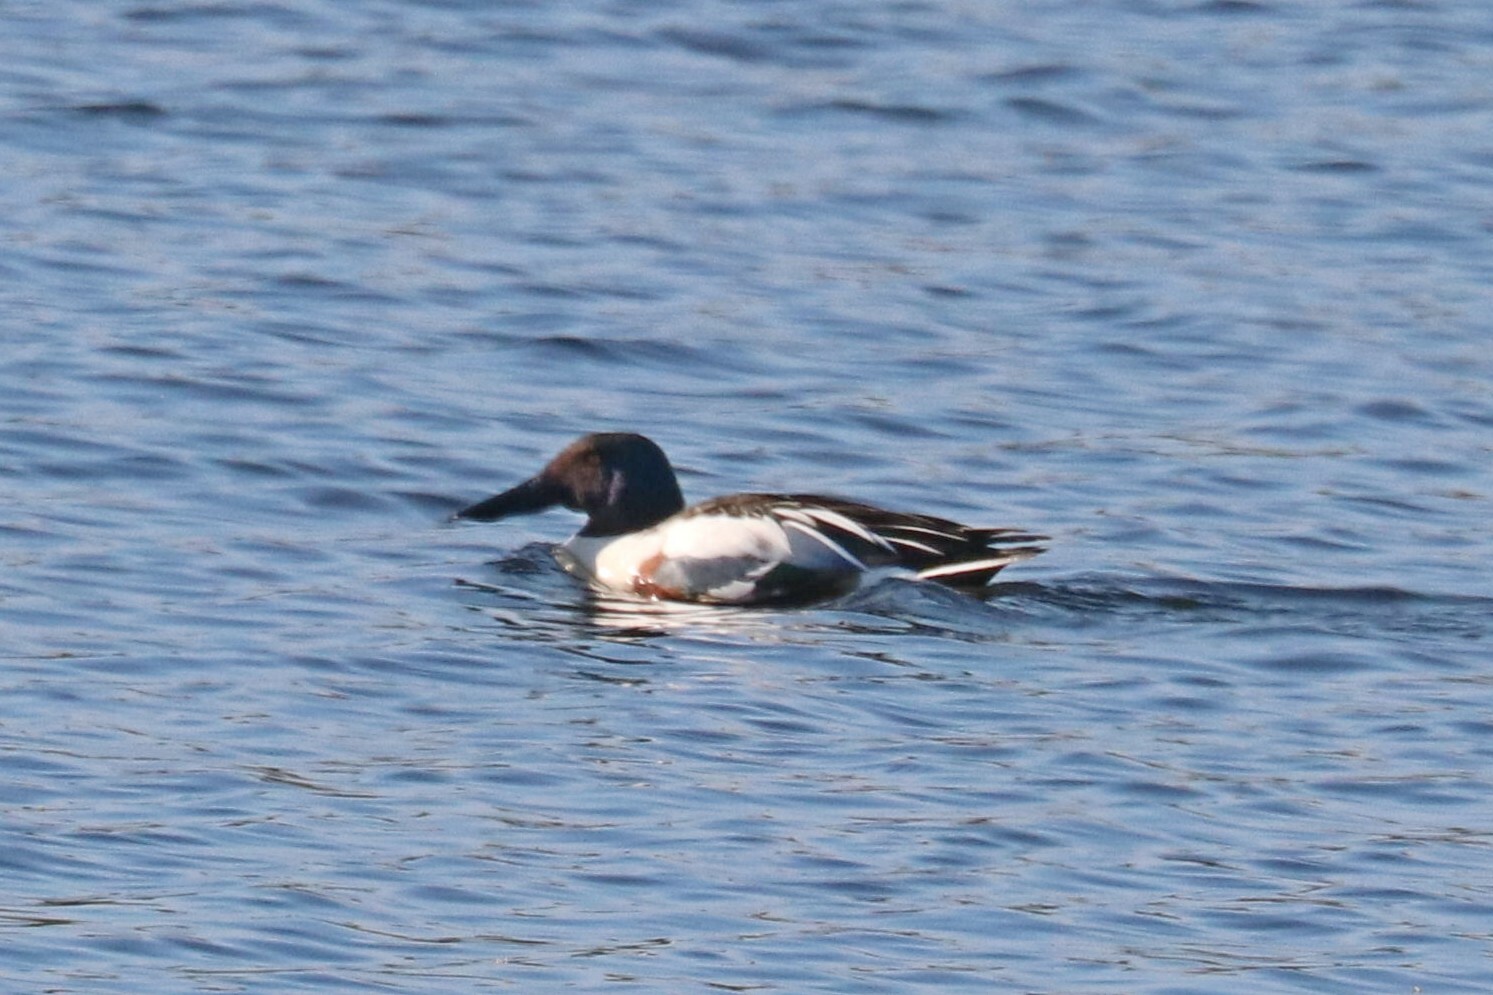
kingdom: Animalia
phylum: Chordata
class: Aves
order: Anseriformes
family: Anatidae
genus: Spatula
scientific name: Spatula clypeata
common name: Northern shoveler
